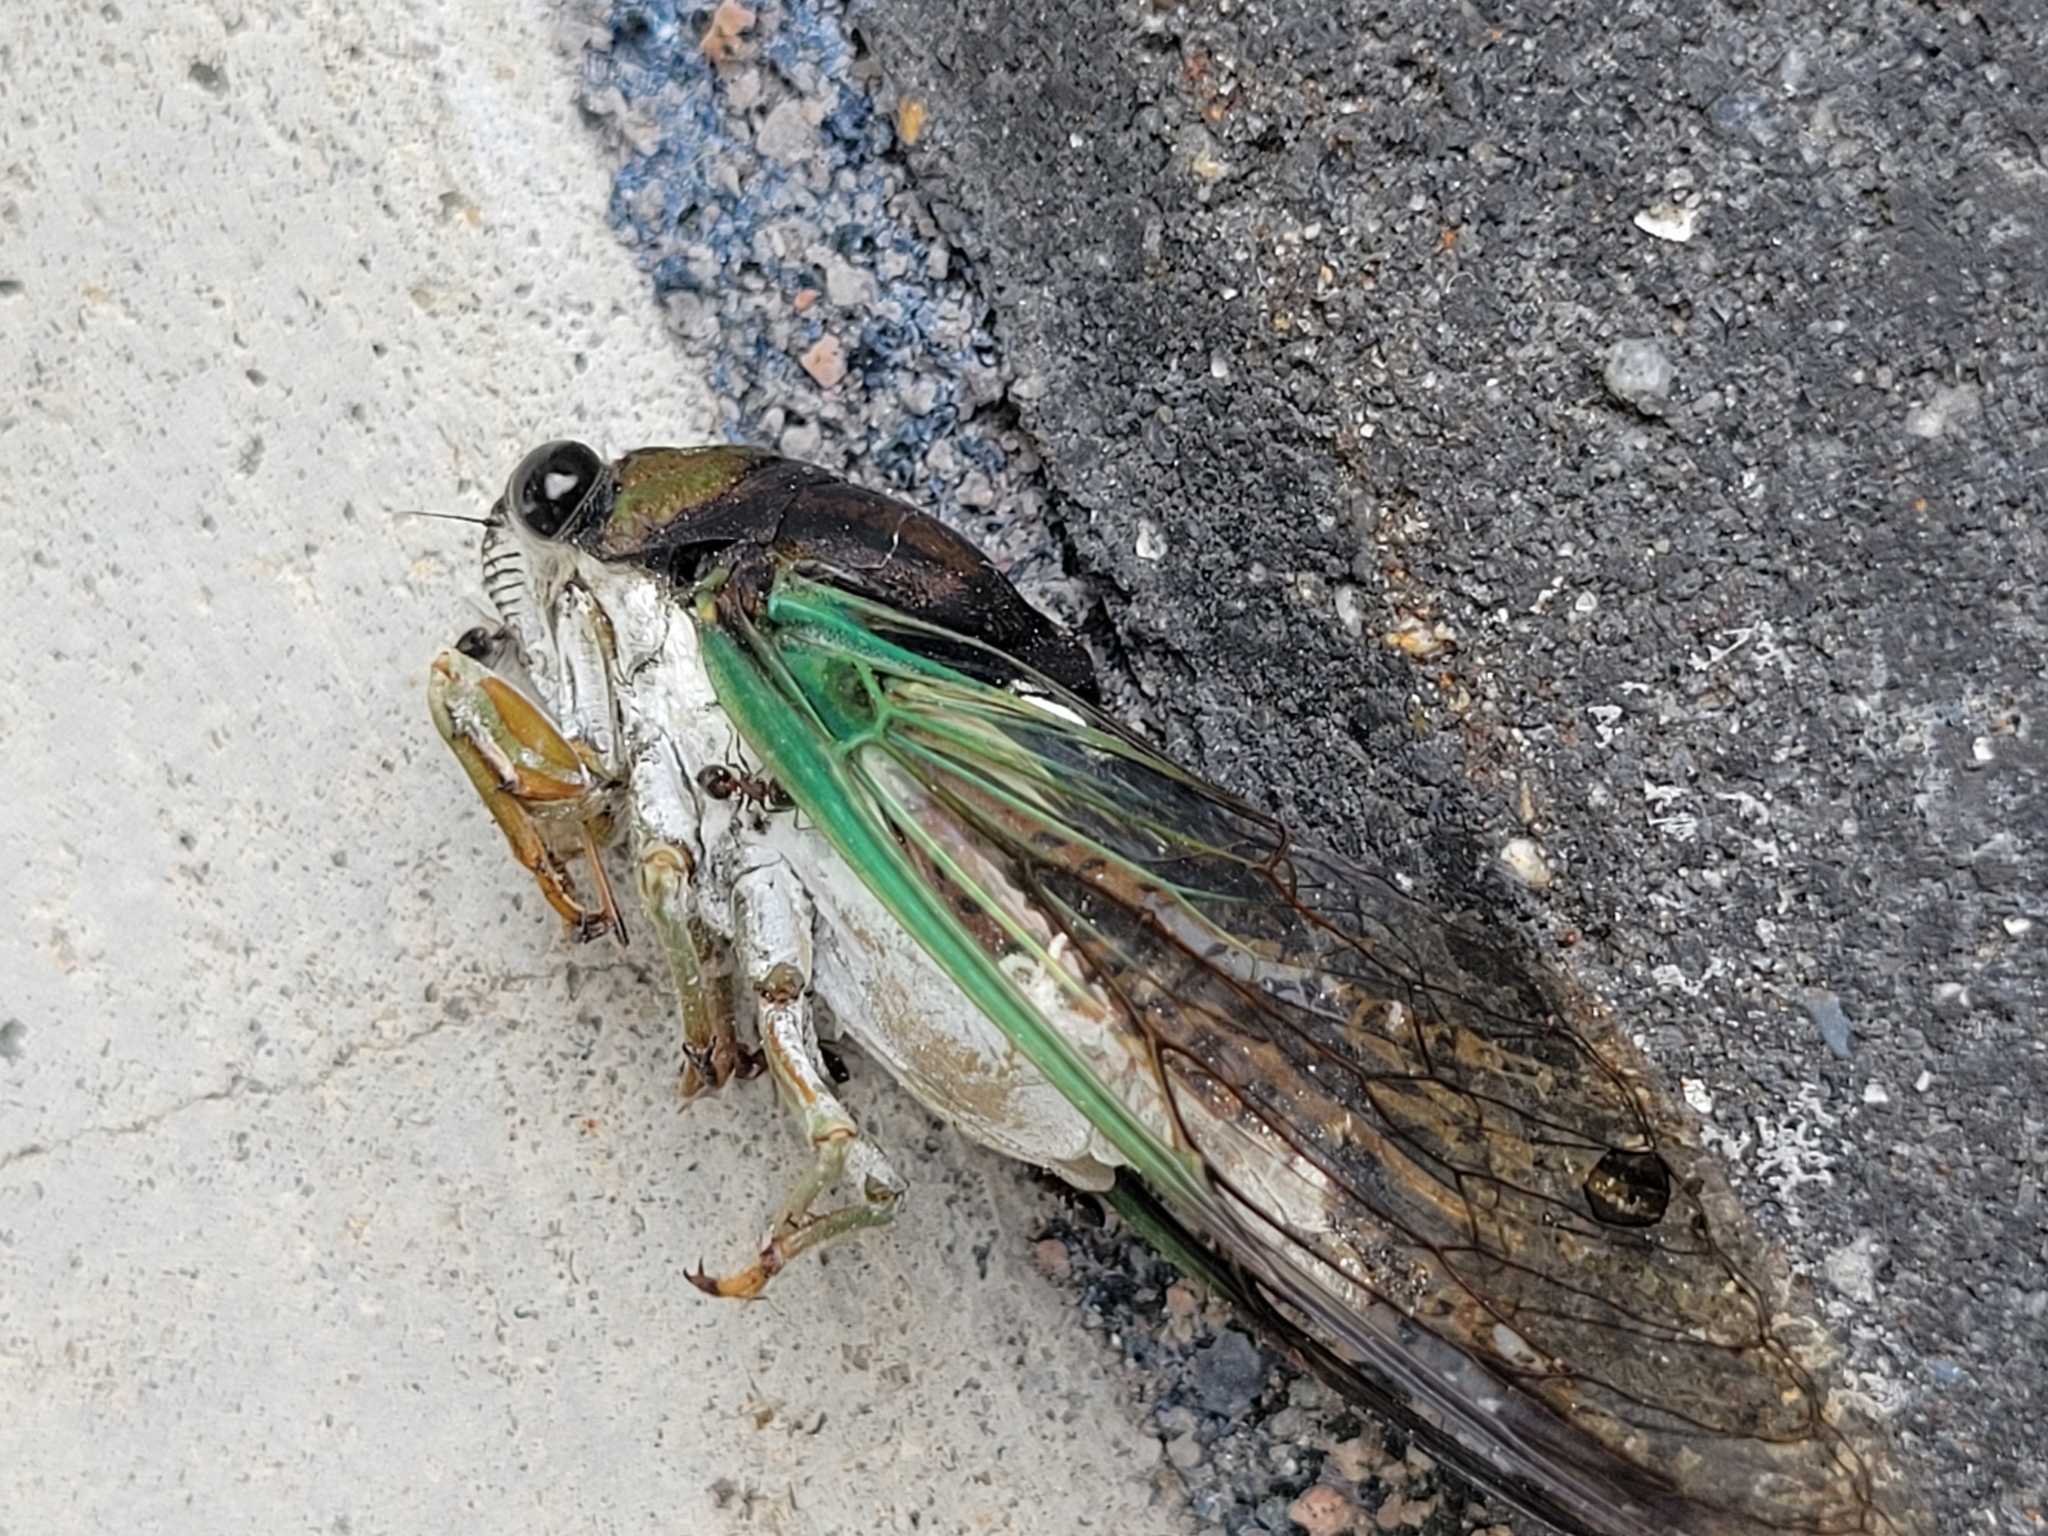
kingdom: Animalia
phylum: Arthropoda
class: Insecta
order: Hemiptera
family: Cicadidae
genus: Neotibicen
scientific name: Neotibicen tibicen
